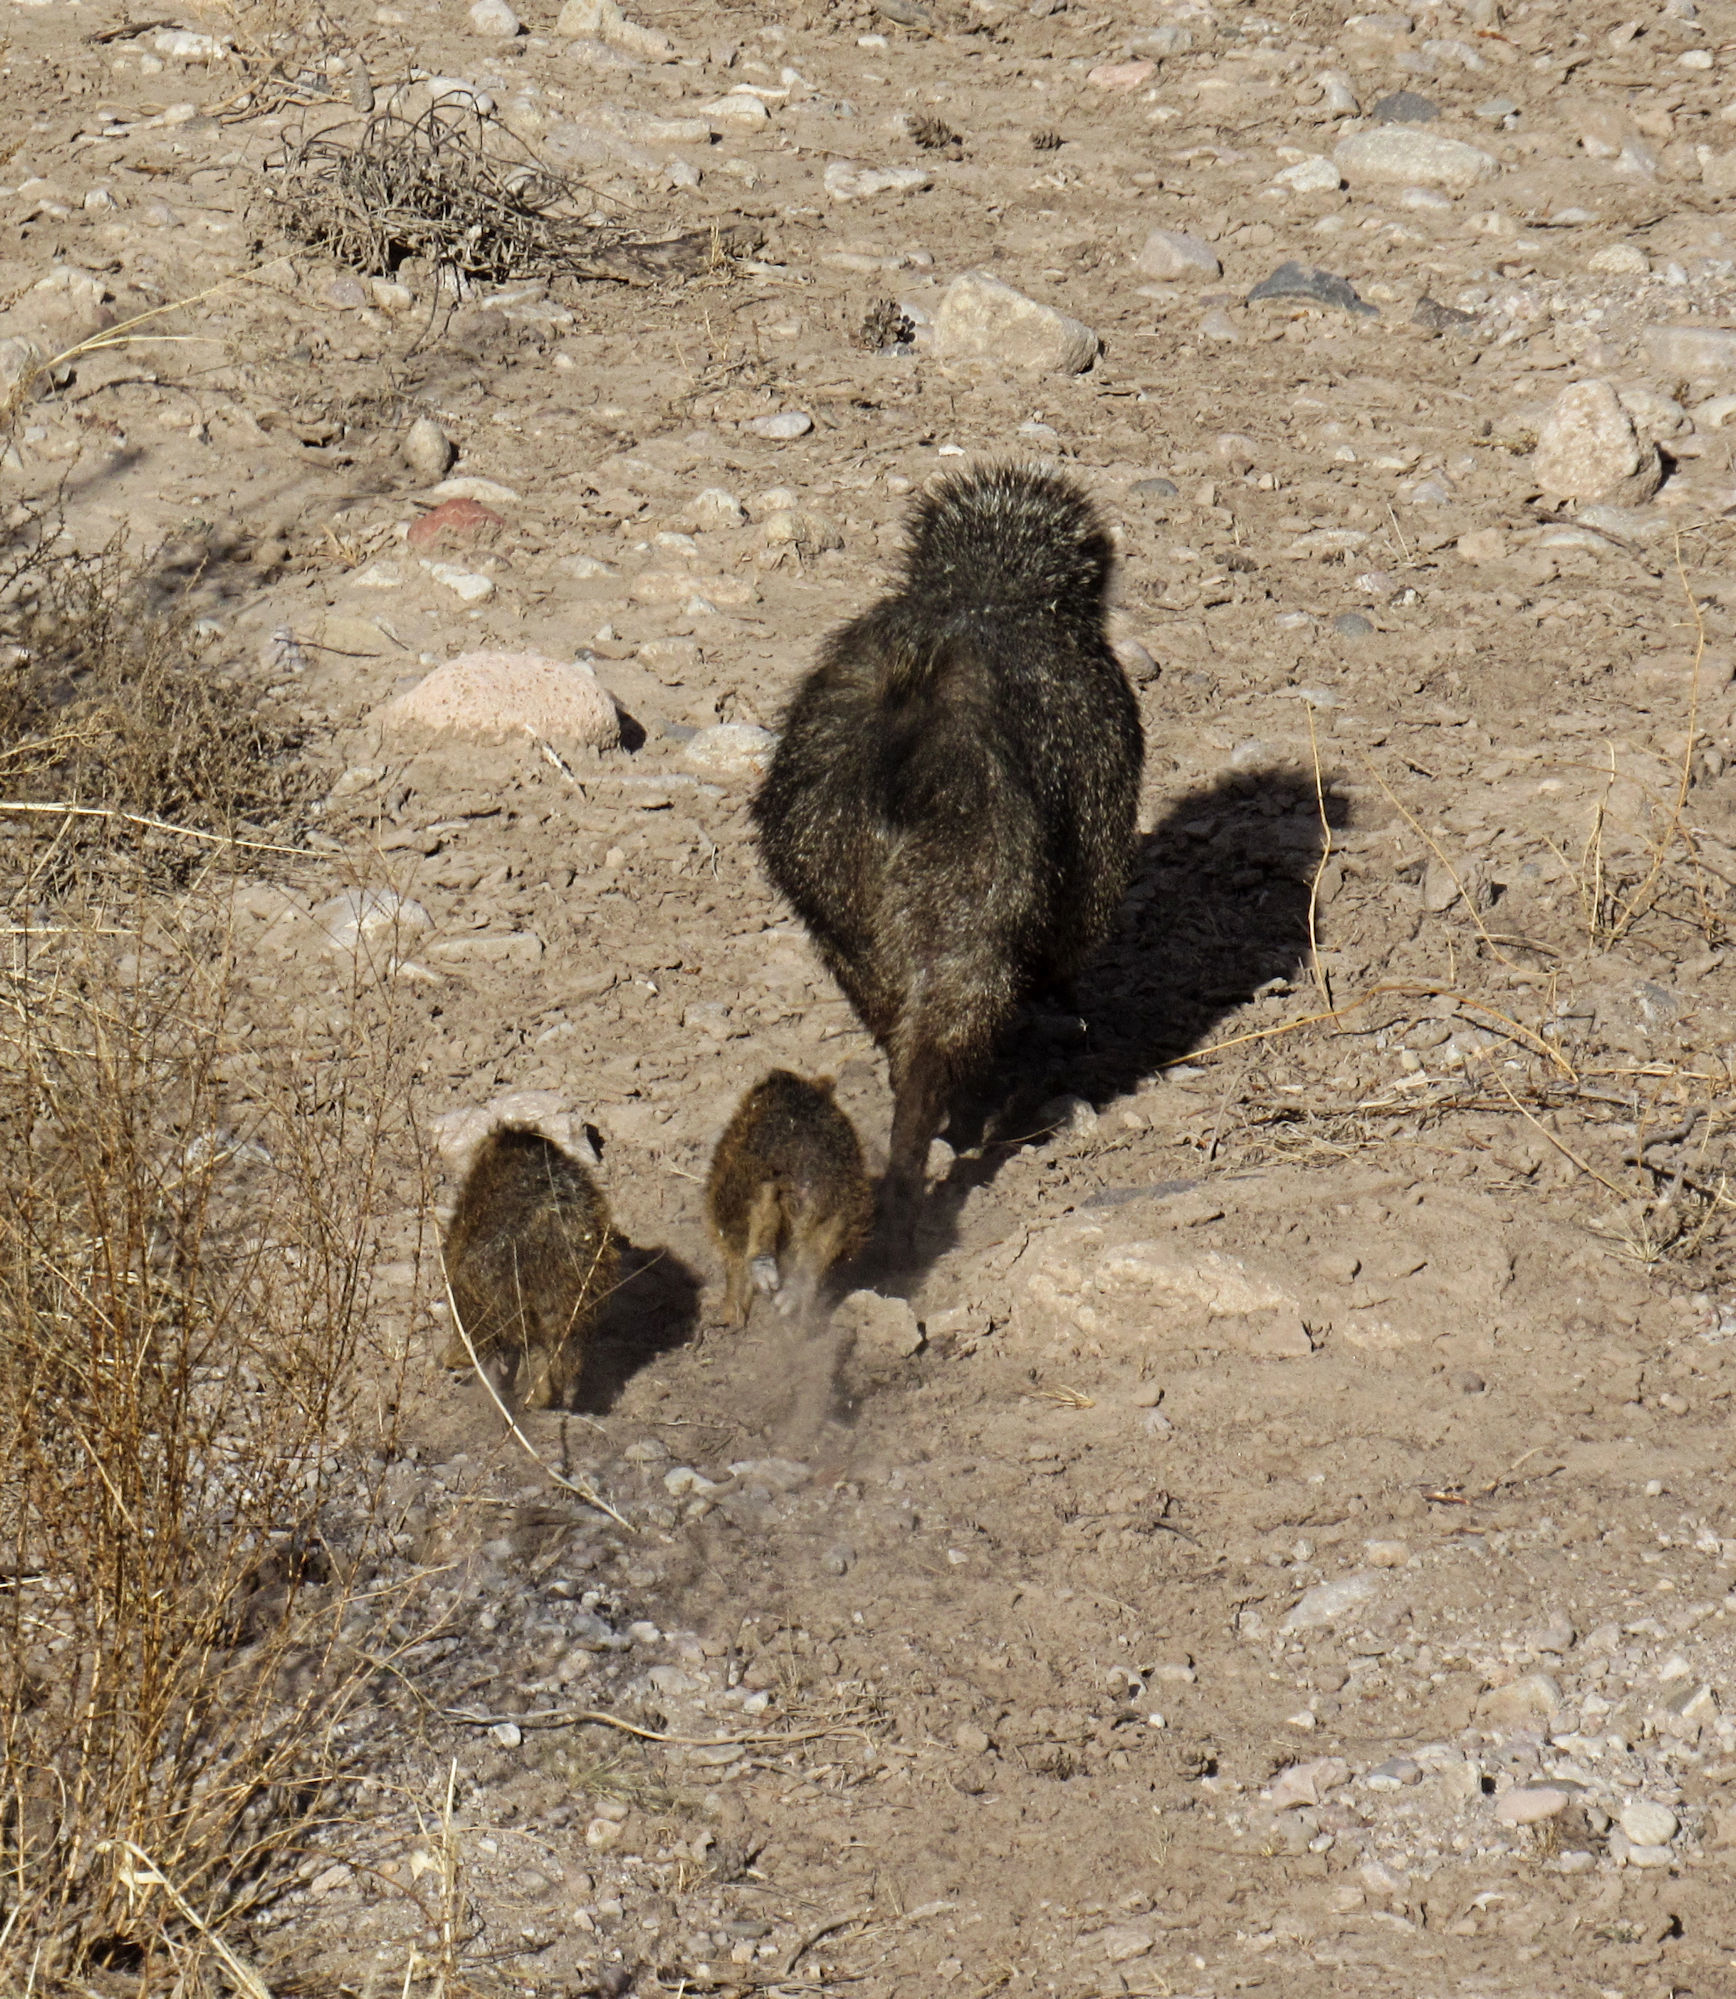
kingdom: Animalia
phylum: Chordata
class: Mammalia
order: Artiodactyla
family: Tayassuidae
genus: Pecari
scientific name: Pecari tajacu
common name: Collared peccary
